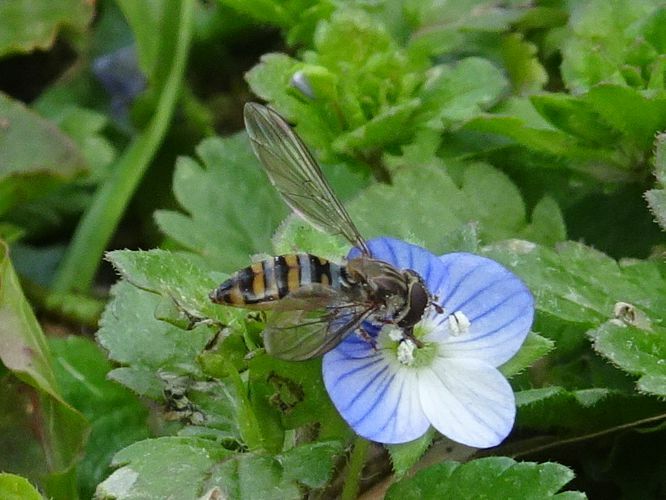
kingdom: Animalia
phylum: Arthropoda
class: Insecta
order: Diptera
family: Syrphidae
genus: Episyrphus
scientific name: Episyrphus balteatus
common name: Marmalade hoverfly
